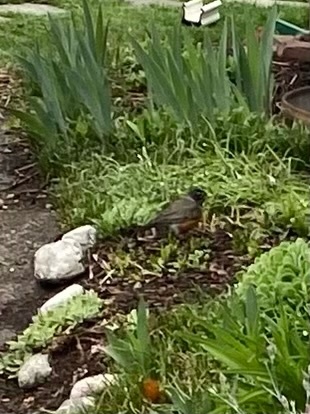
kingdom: Animalia
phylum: Chordata
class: Aves
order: Passeriformes
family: Turdidae
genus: Turdus
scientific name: Turdus migratorius
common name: American robin
